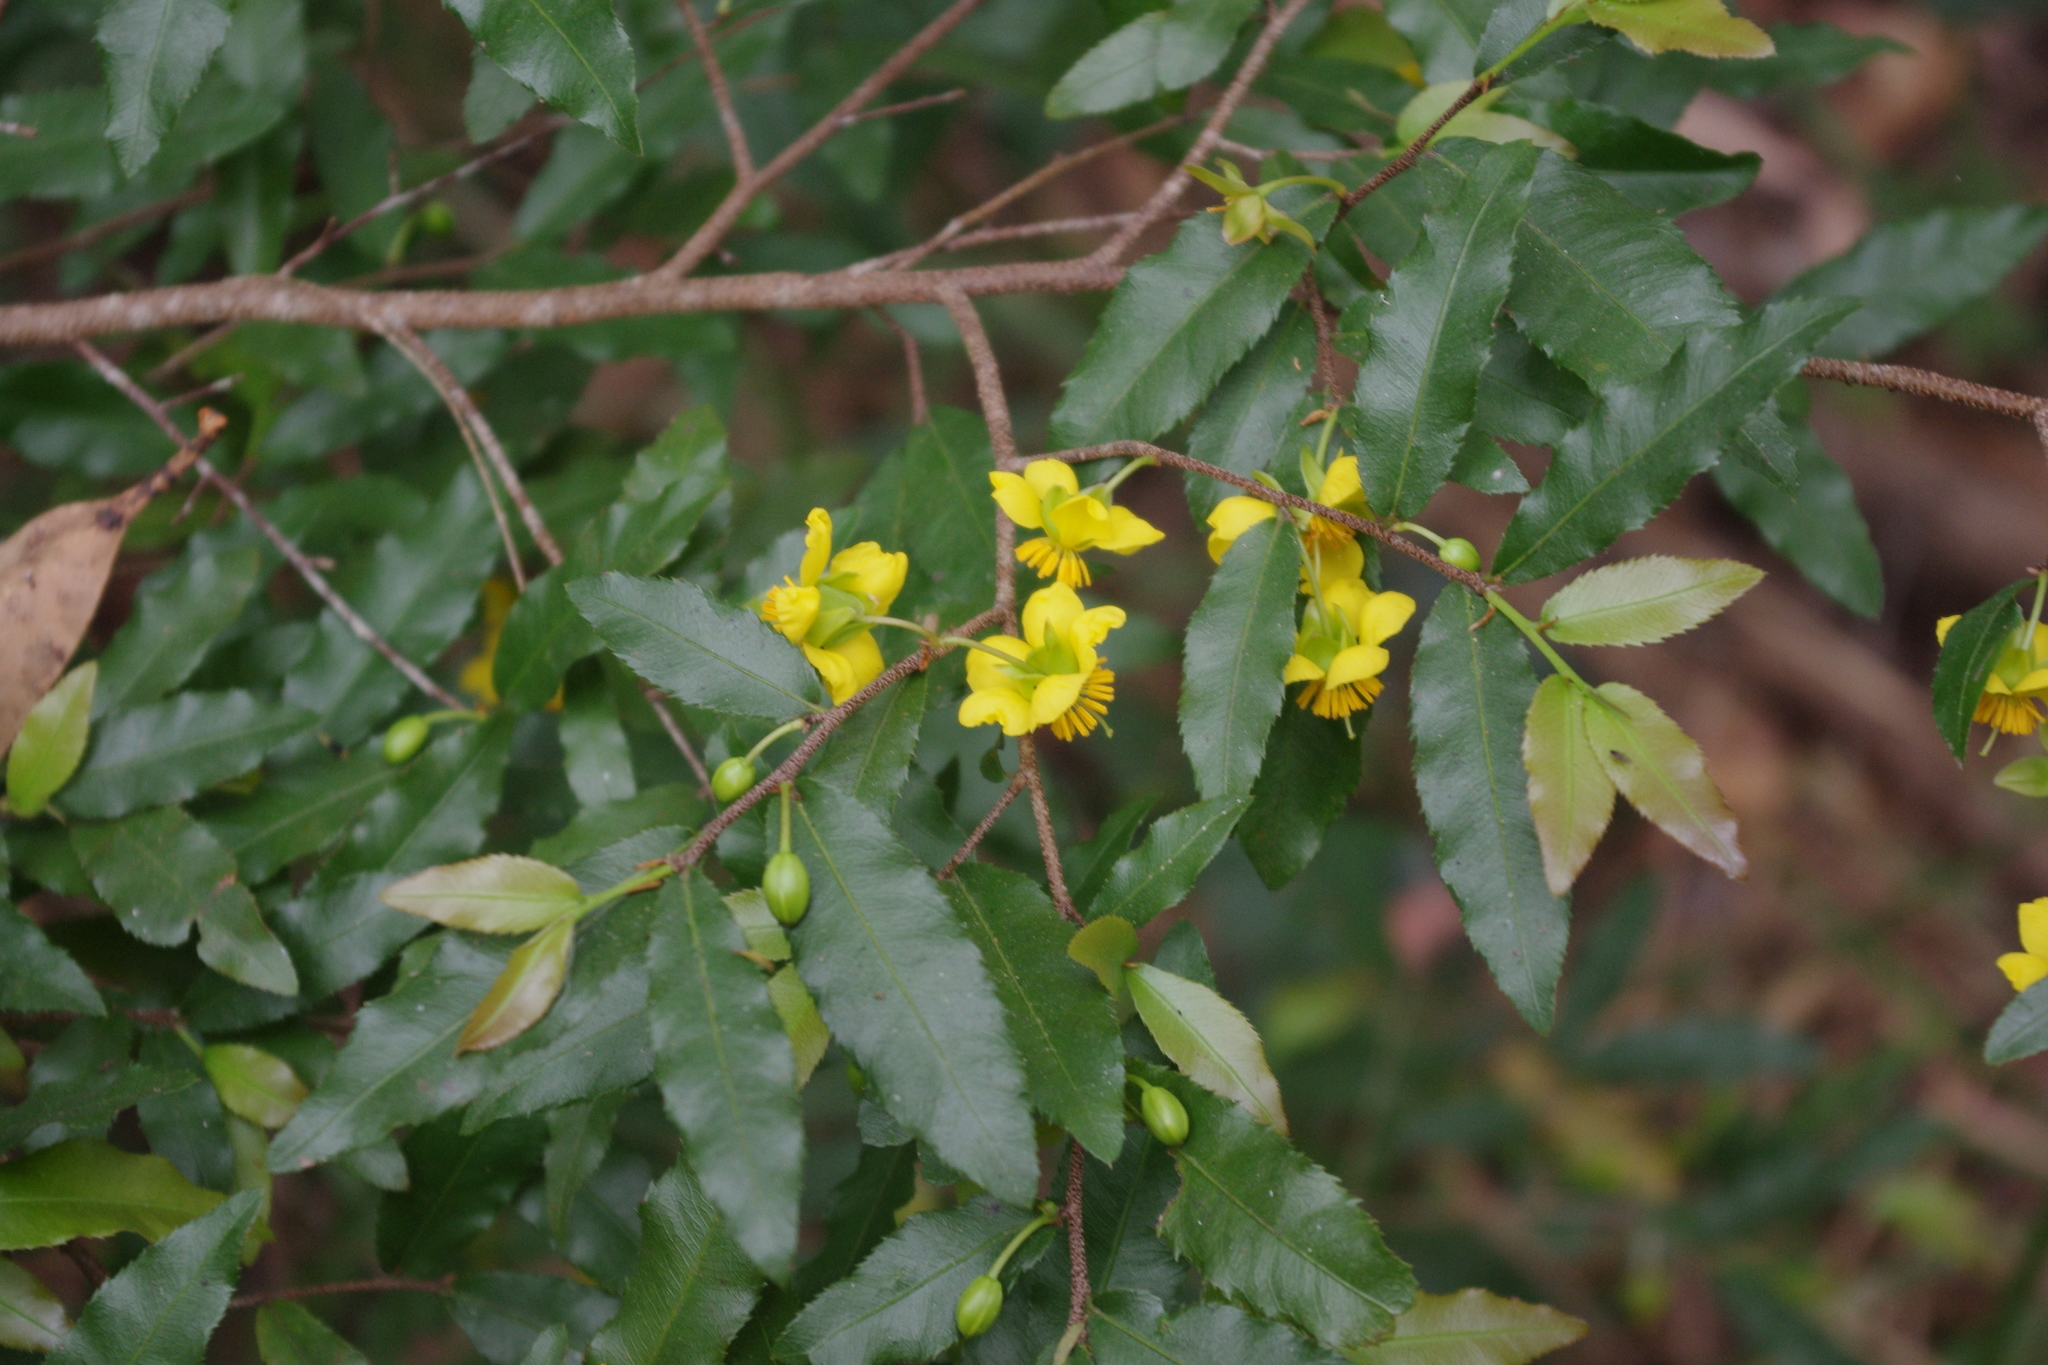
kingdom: Plantae
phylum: Tracheophyta
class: Magnoliopsida
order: Malpighiales
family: Ochnaceae
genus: Ochna
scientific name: Ochna serrulata
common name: Mickey mouse plant
